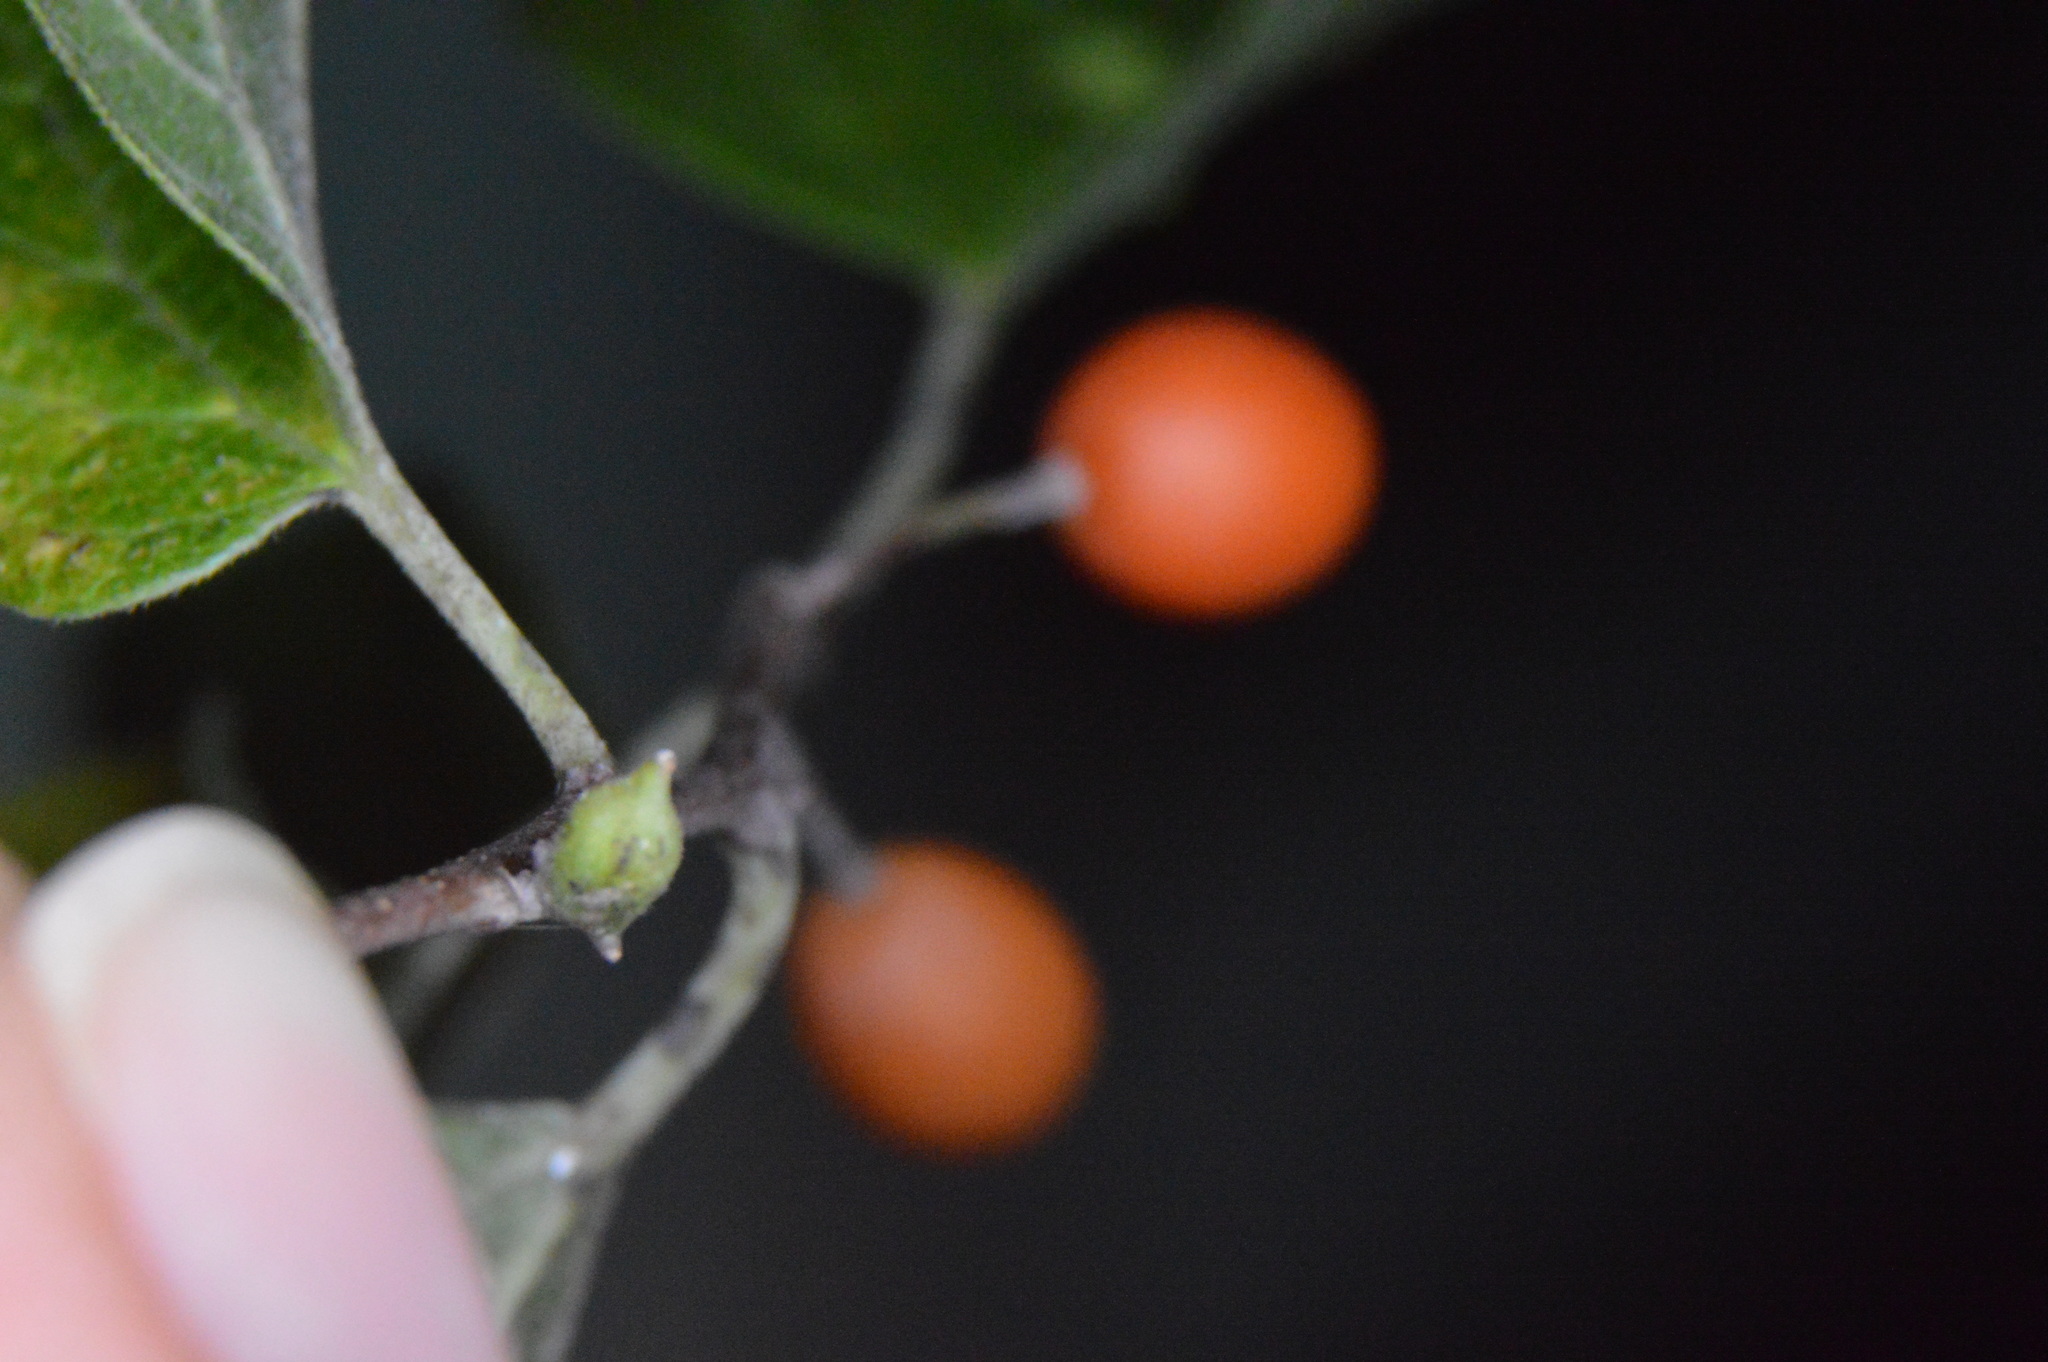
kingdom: Animalia
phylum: Arthropoda
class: Insecta
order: Diptera
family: Cecidomyiidae
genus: Celticecis
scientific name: Celticecis ramicola
